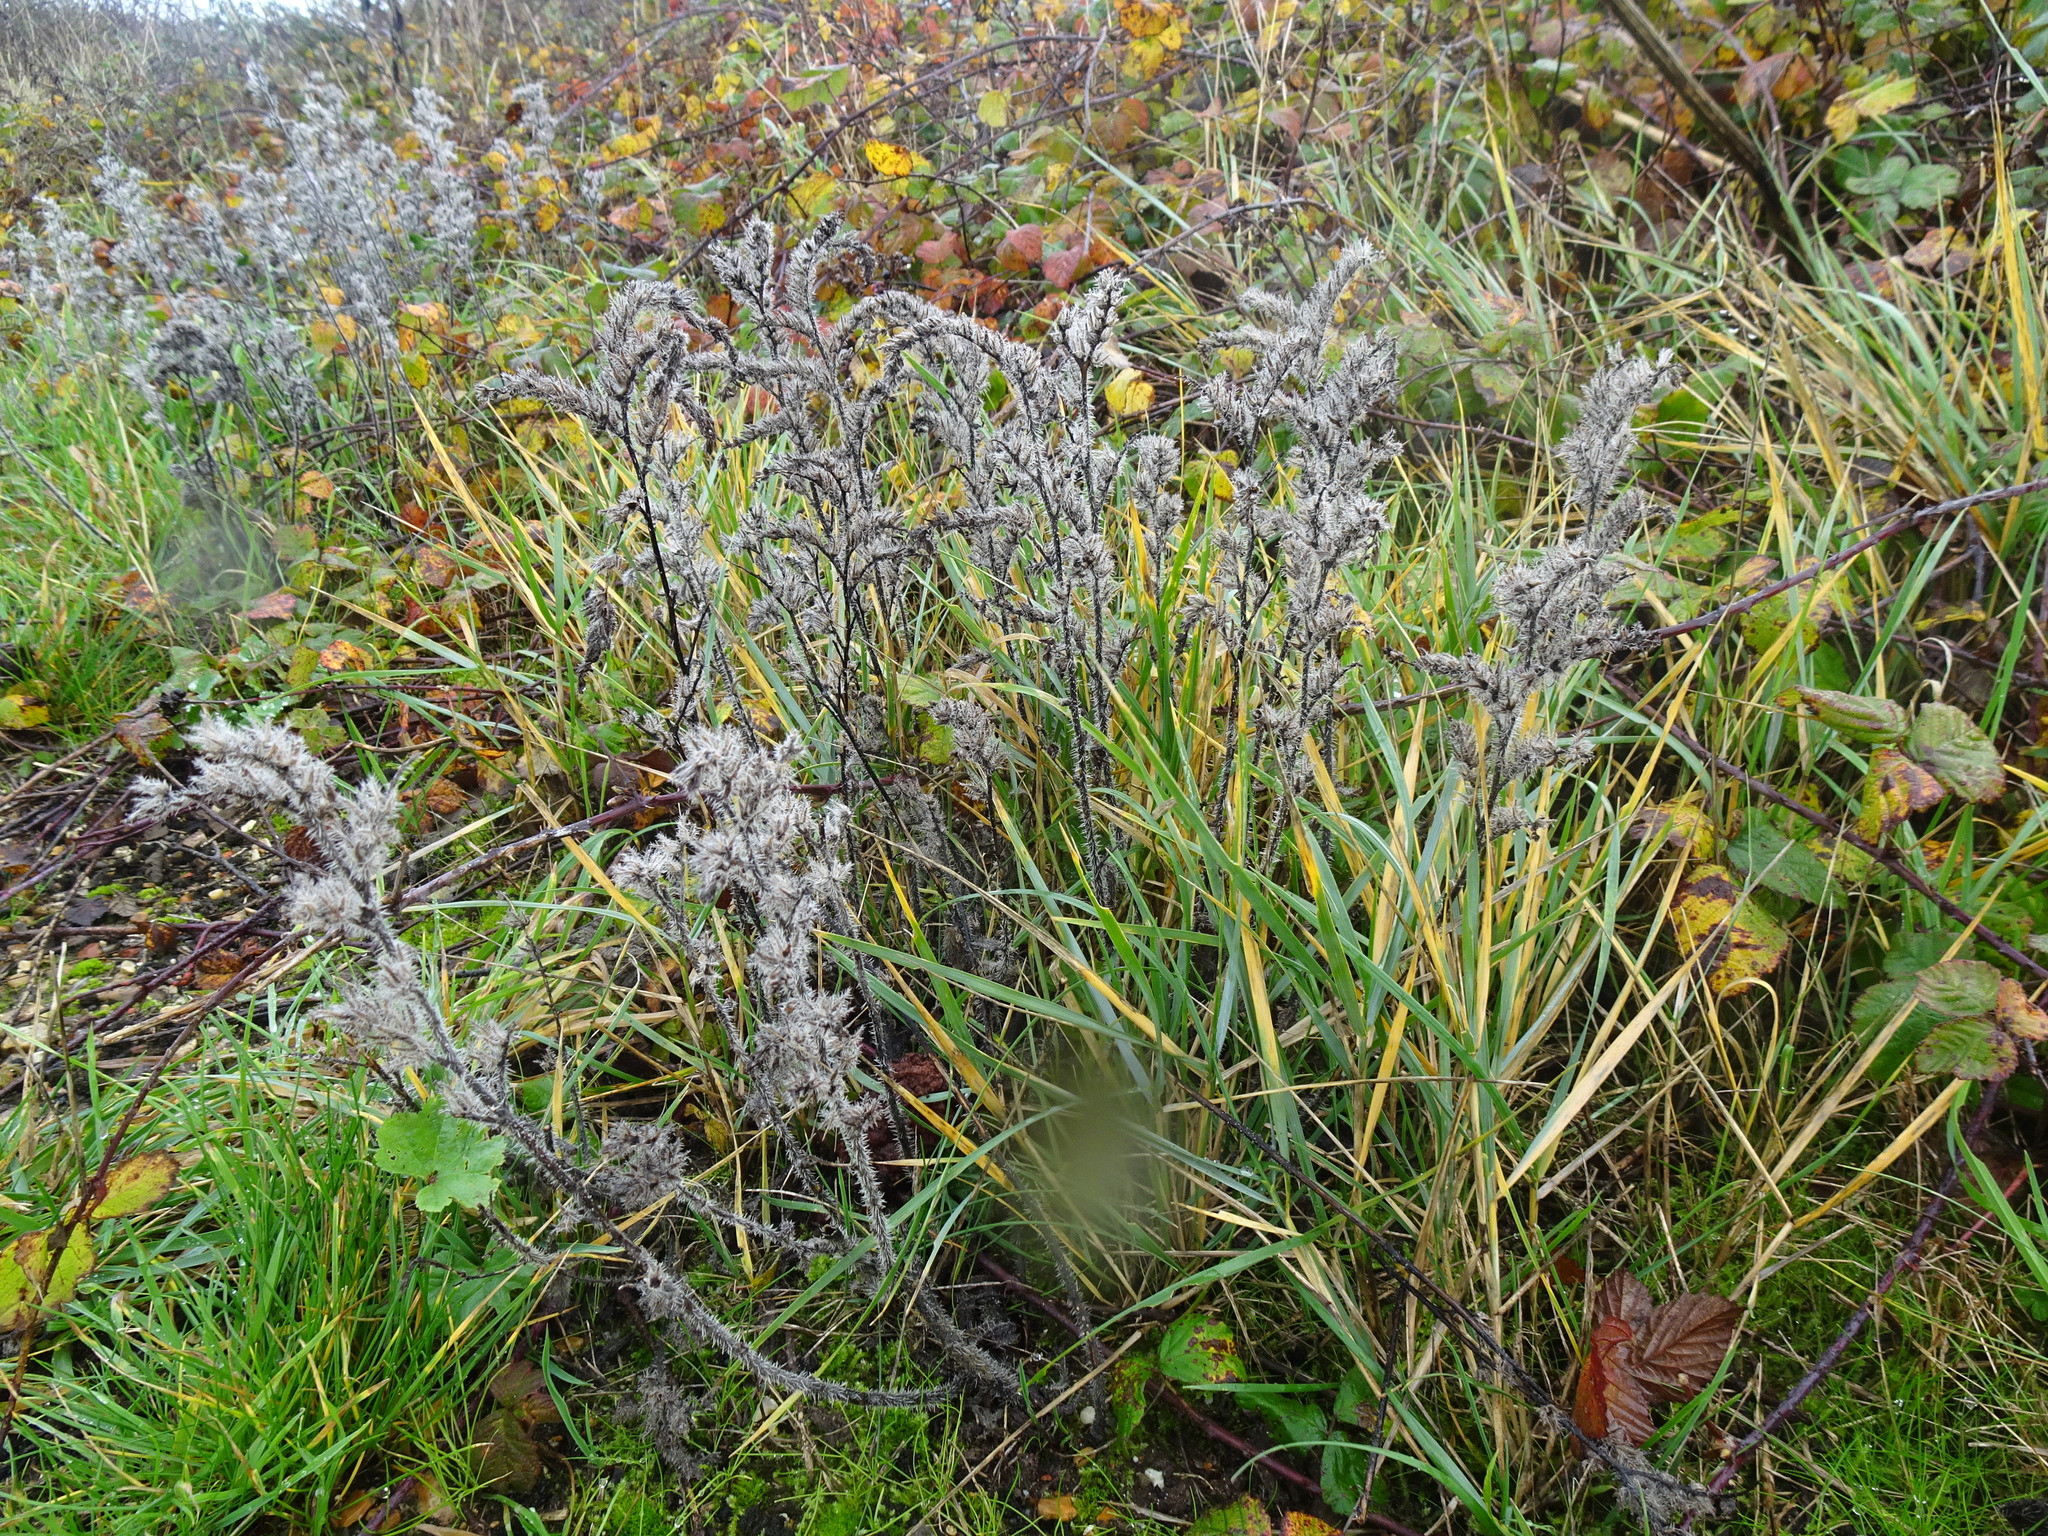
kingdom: Plantae
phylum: Tracheophyta
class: Magnoliopsida
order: Boraginales
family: Boraginaceae
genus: Echium
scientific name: Echium vulgare
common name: Common viper's bugloss
